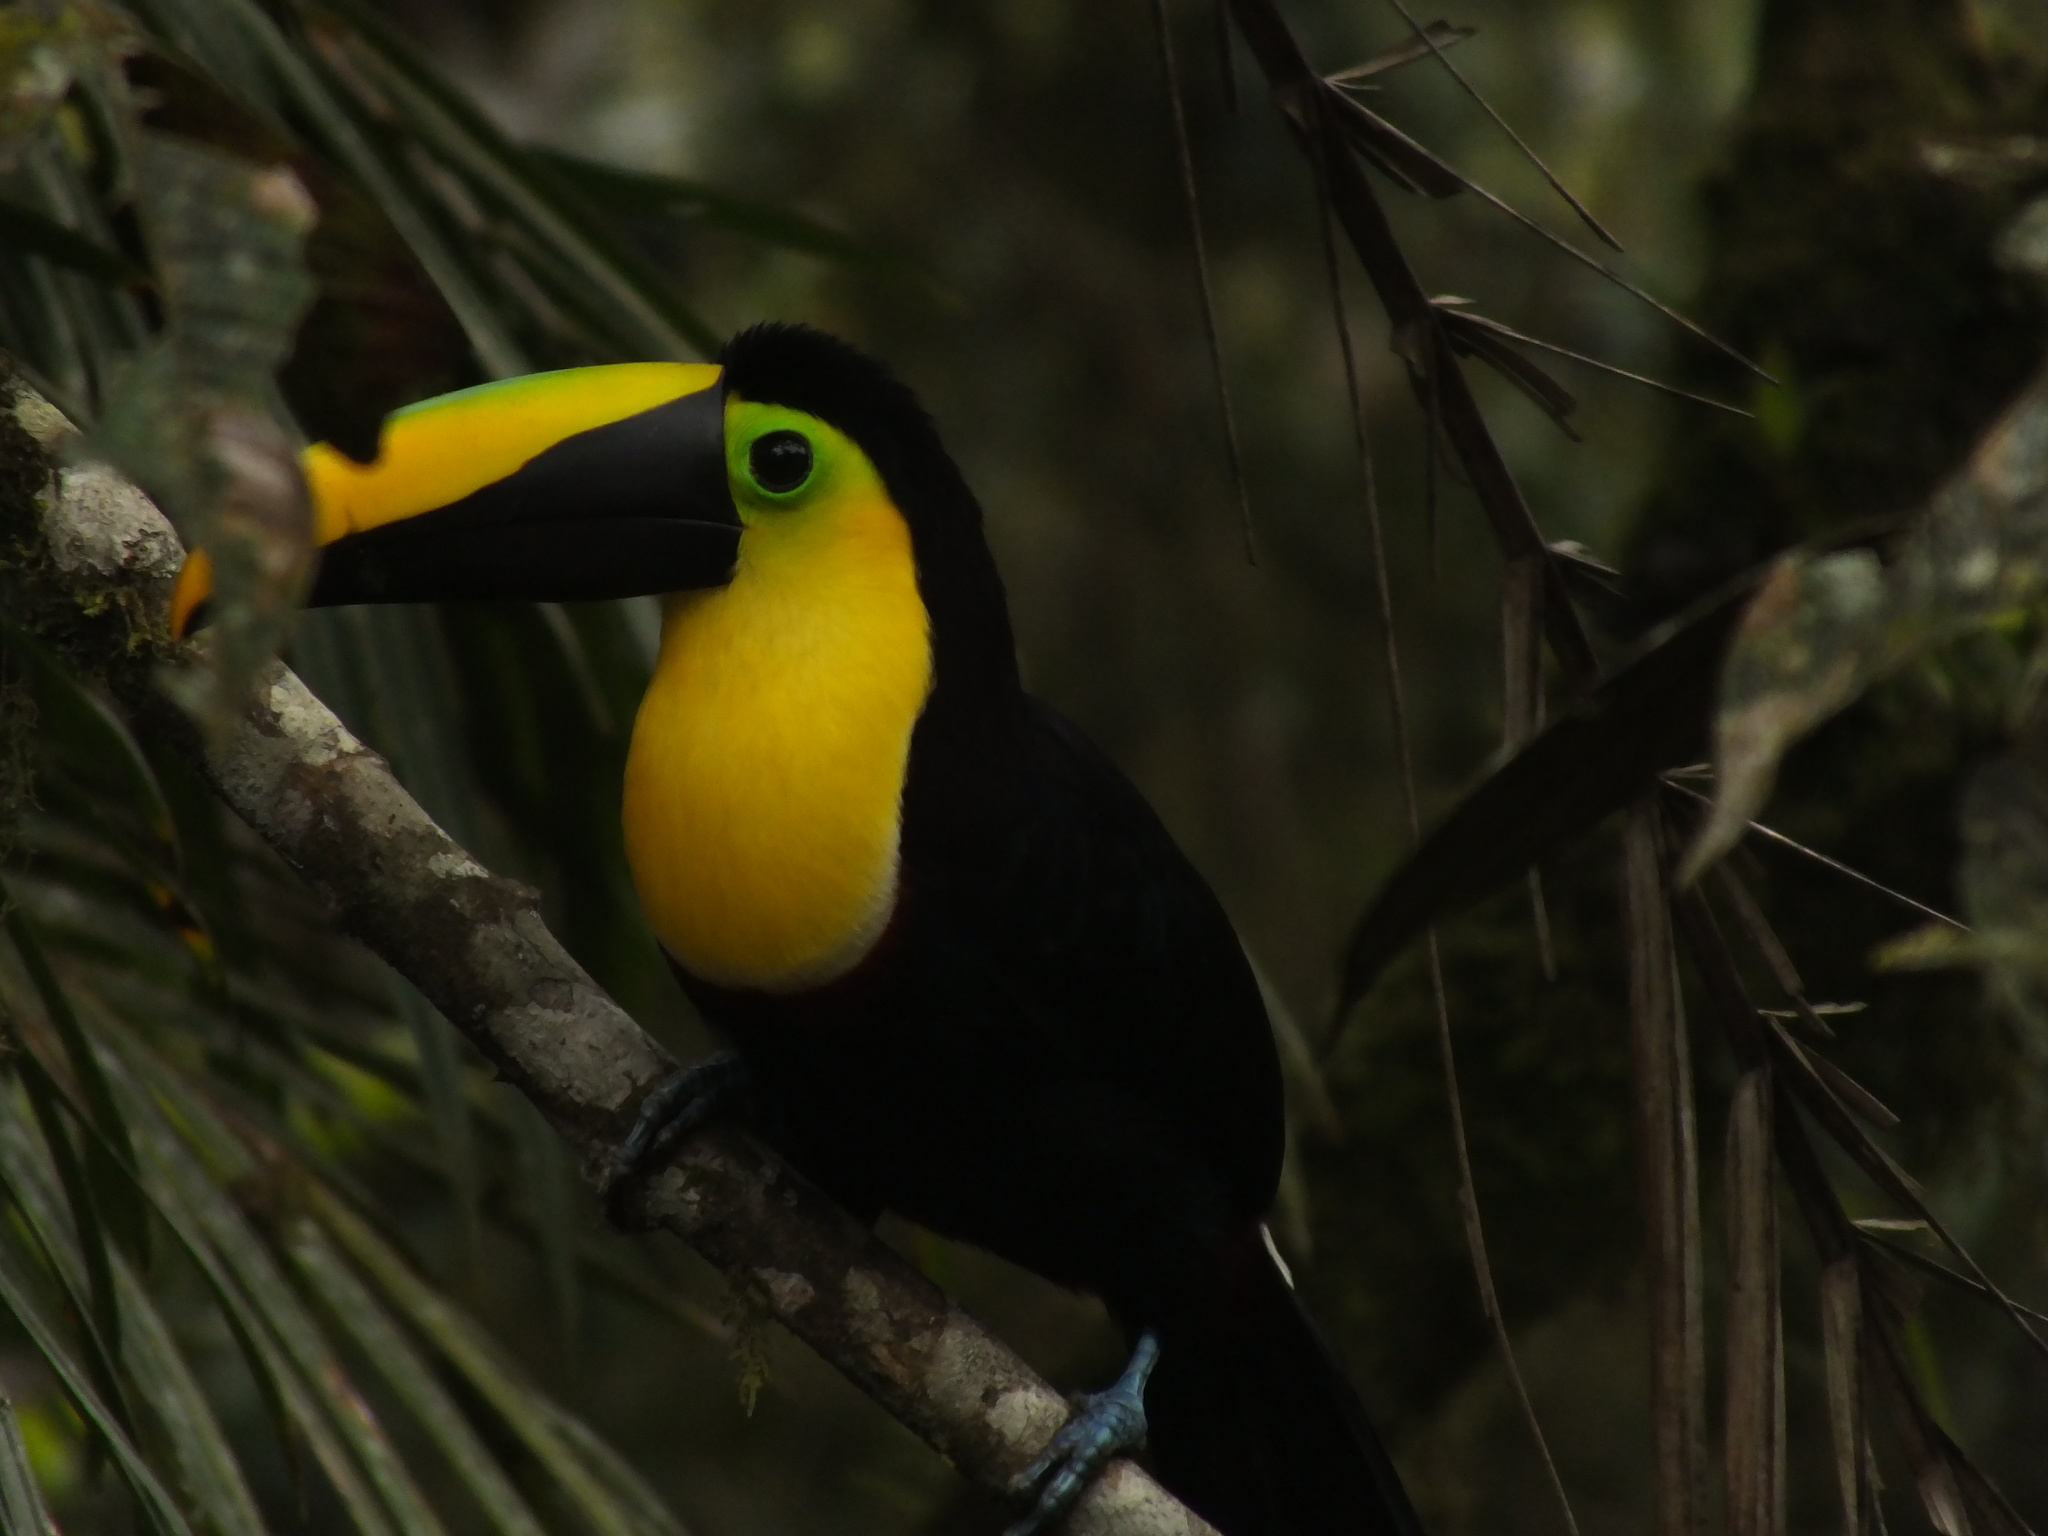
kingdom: Animalia
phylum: Chordata
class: Aves
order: Piciformes
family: Ramphastidae
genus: Ramphastos
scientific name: Ramphastos brevis
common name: Choco toucan
